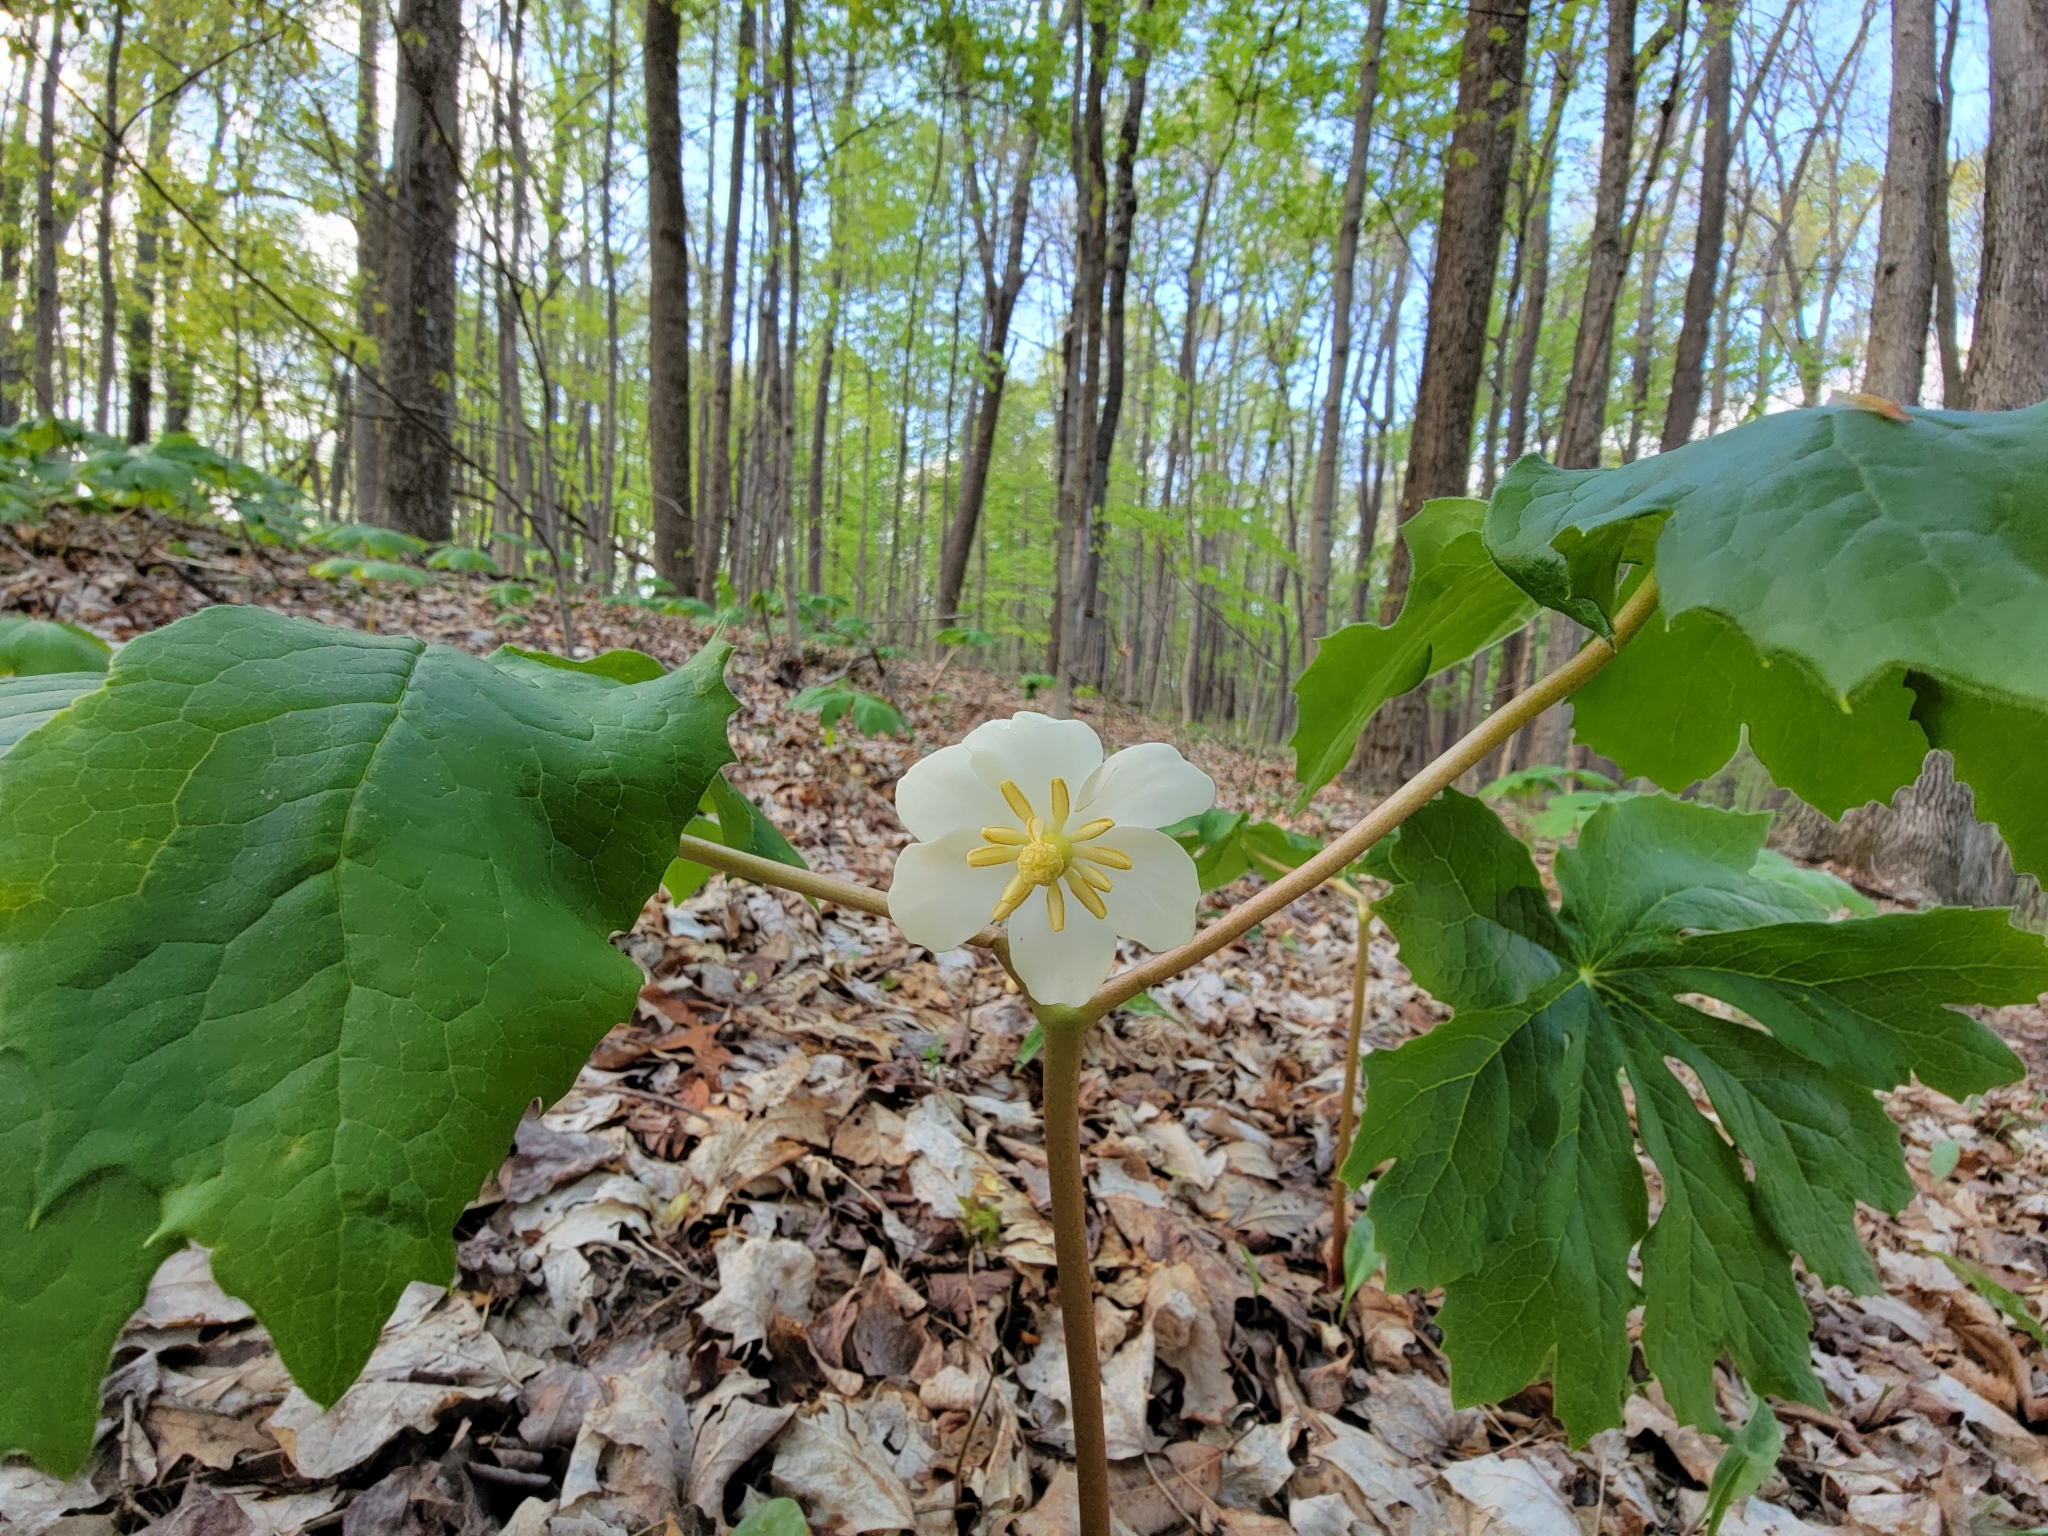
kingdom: Plantae
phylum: Tracheophyta
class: Magnoliopsida
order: Ranunculales
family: Berberidaceae
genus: Podophyllum
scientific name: Podophyllum peltatum
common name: Wild mandrake
